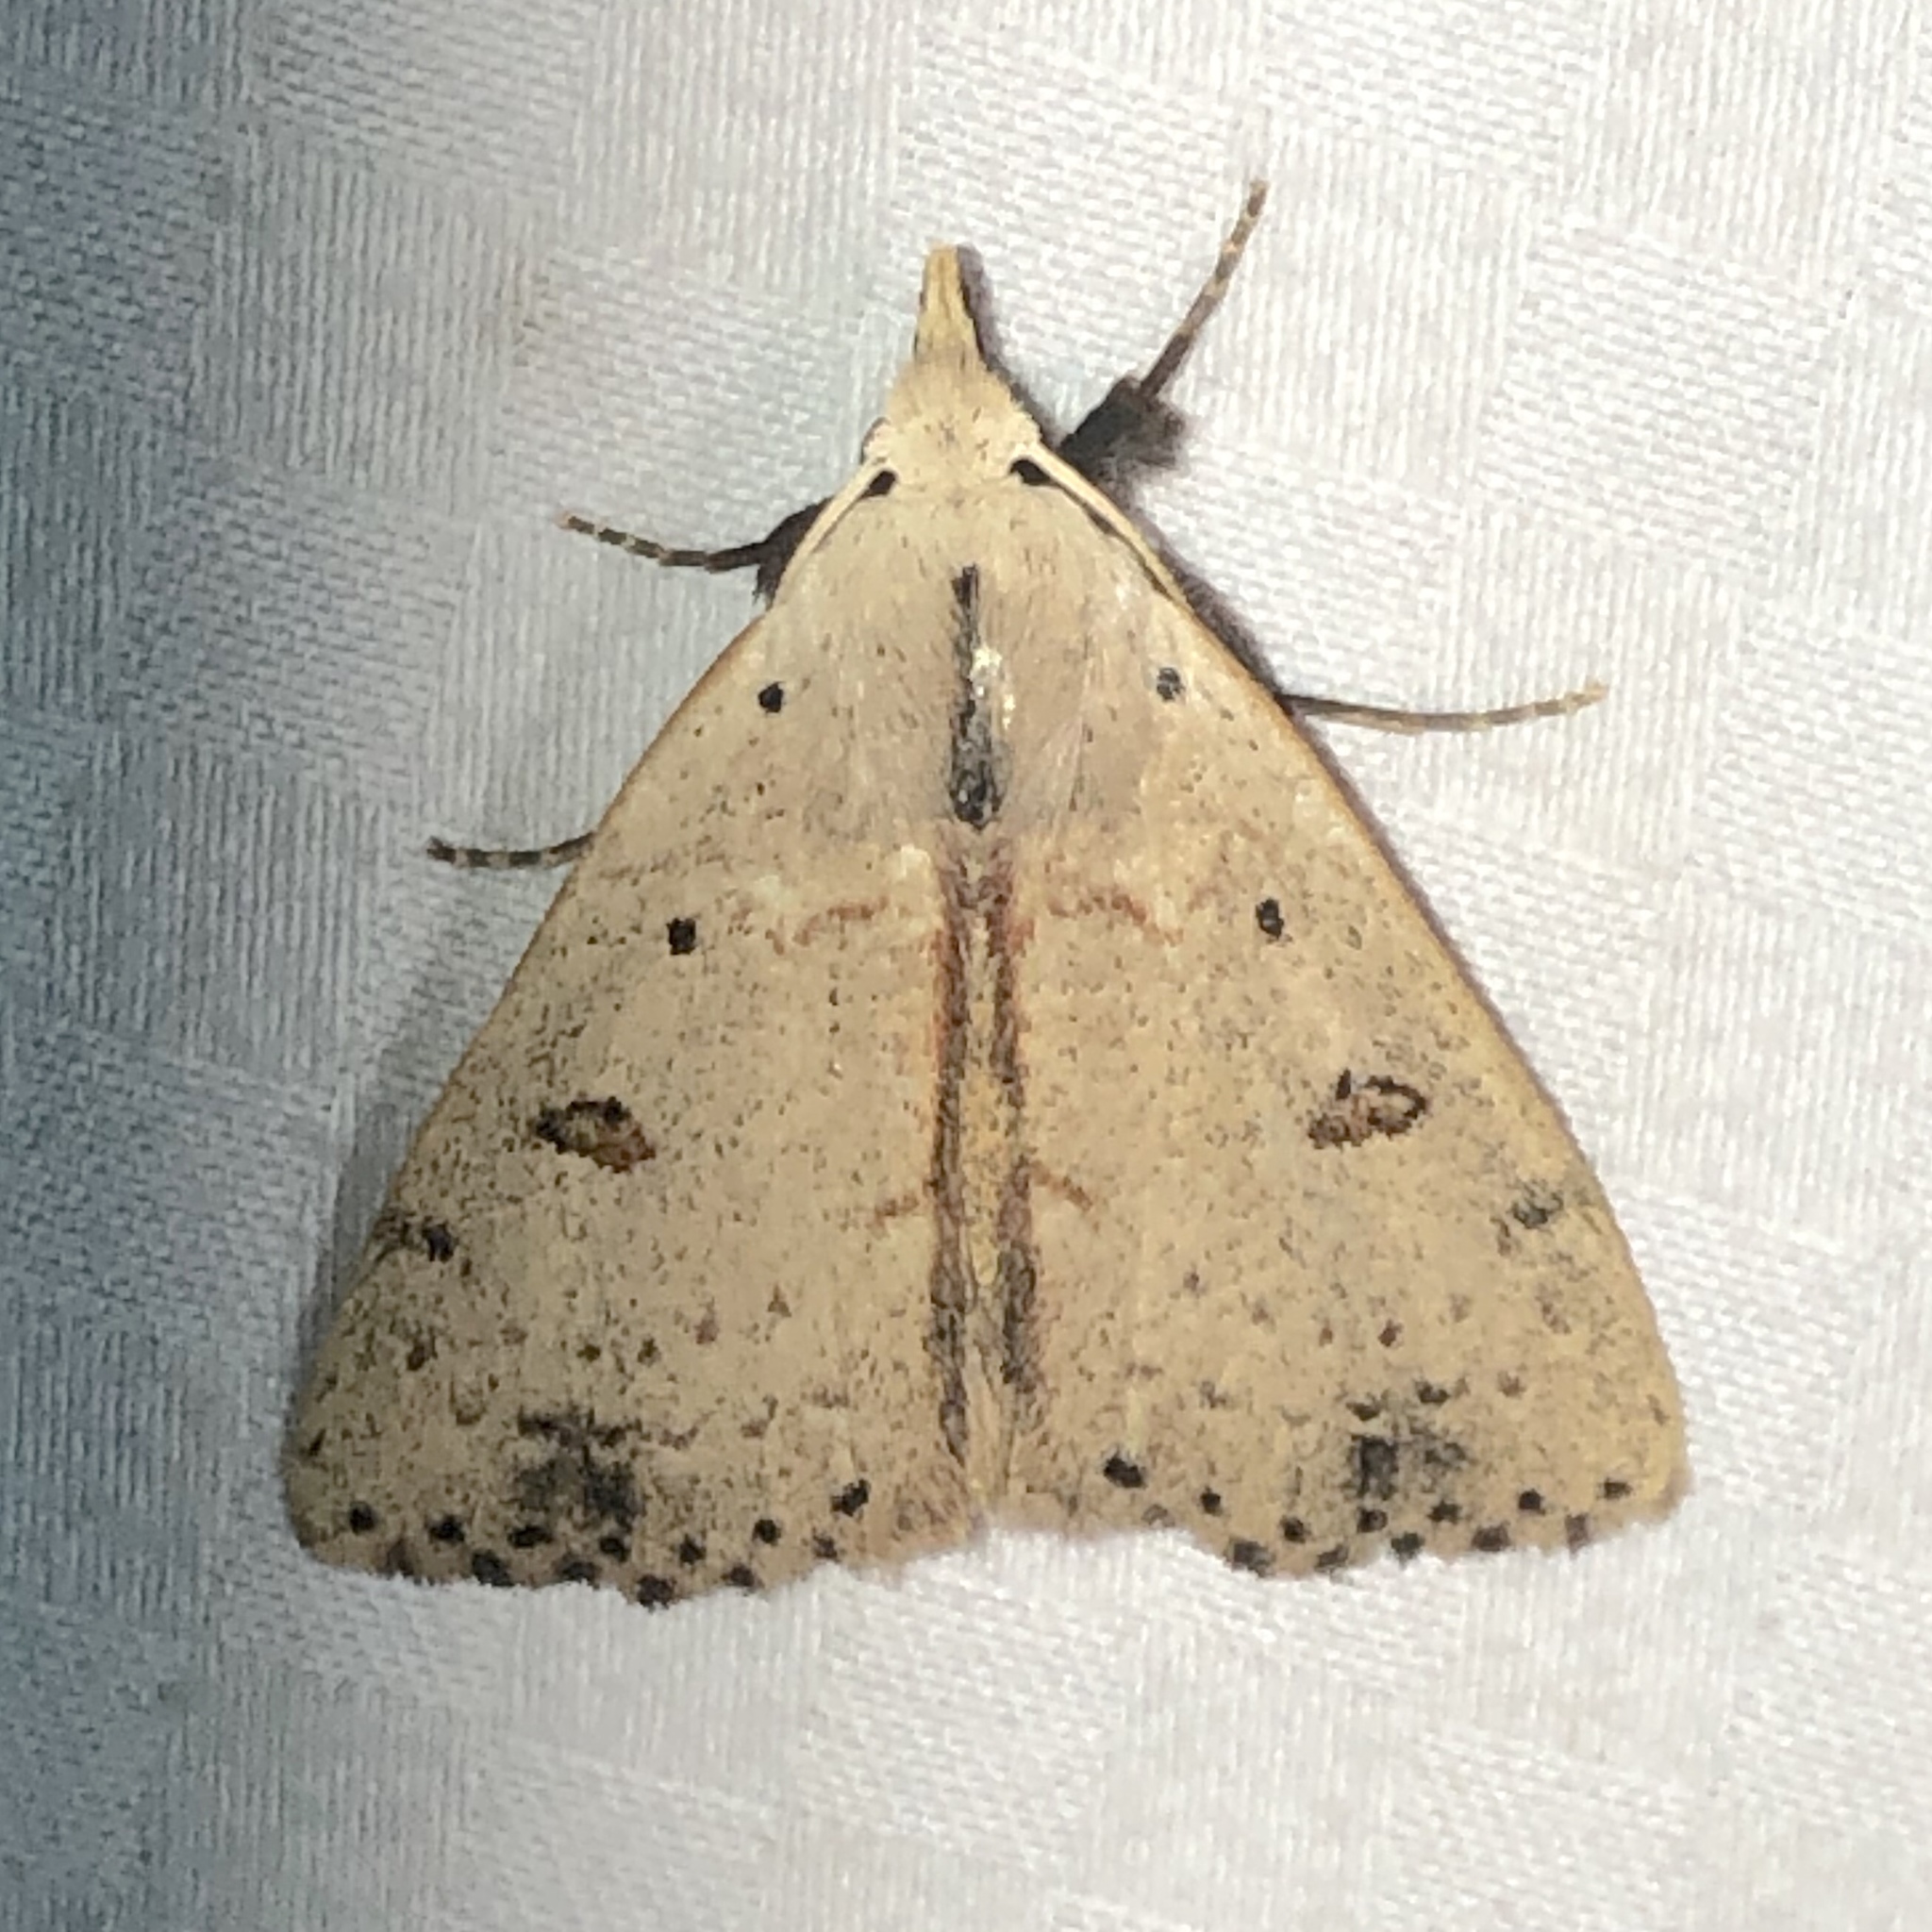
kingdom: Animalia
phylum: Arthropoda
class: Insecta
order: Lepidoptera
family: Erebidae
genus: Scolecocampa
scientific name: Scolecocampa liburna
